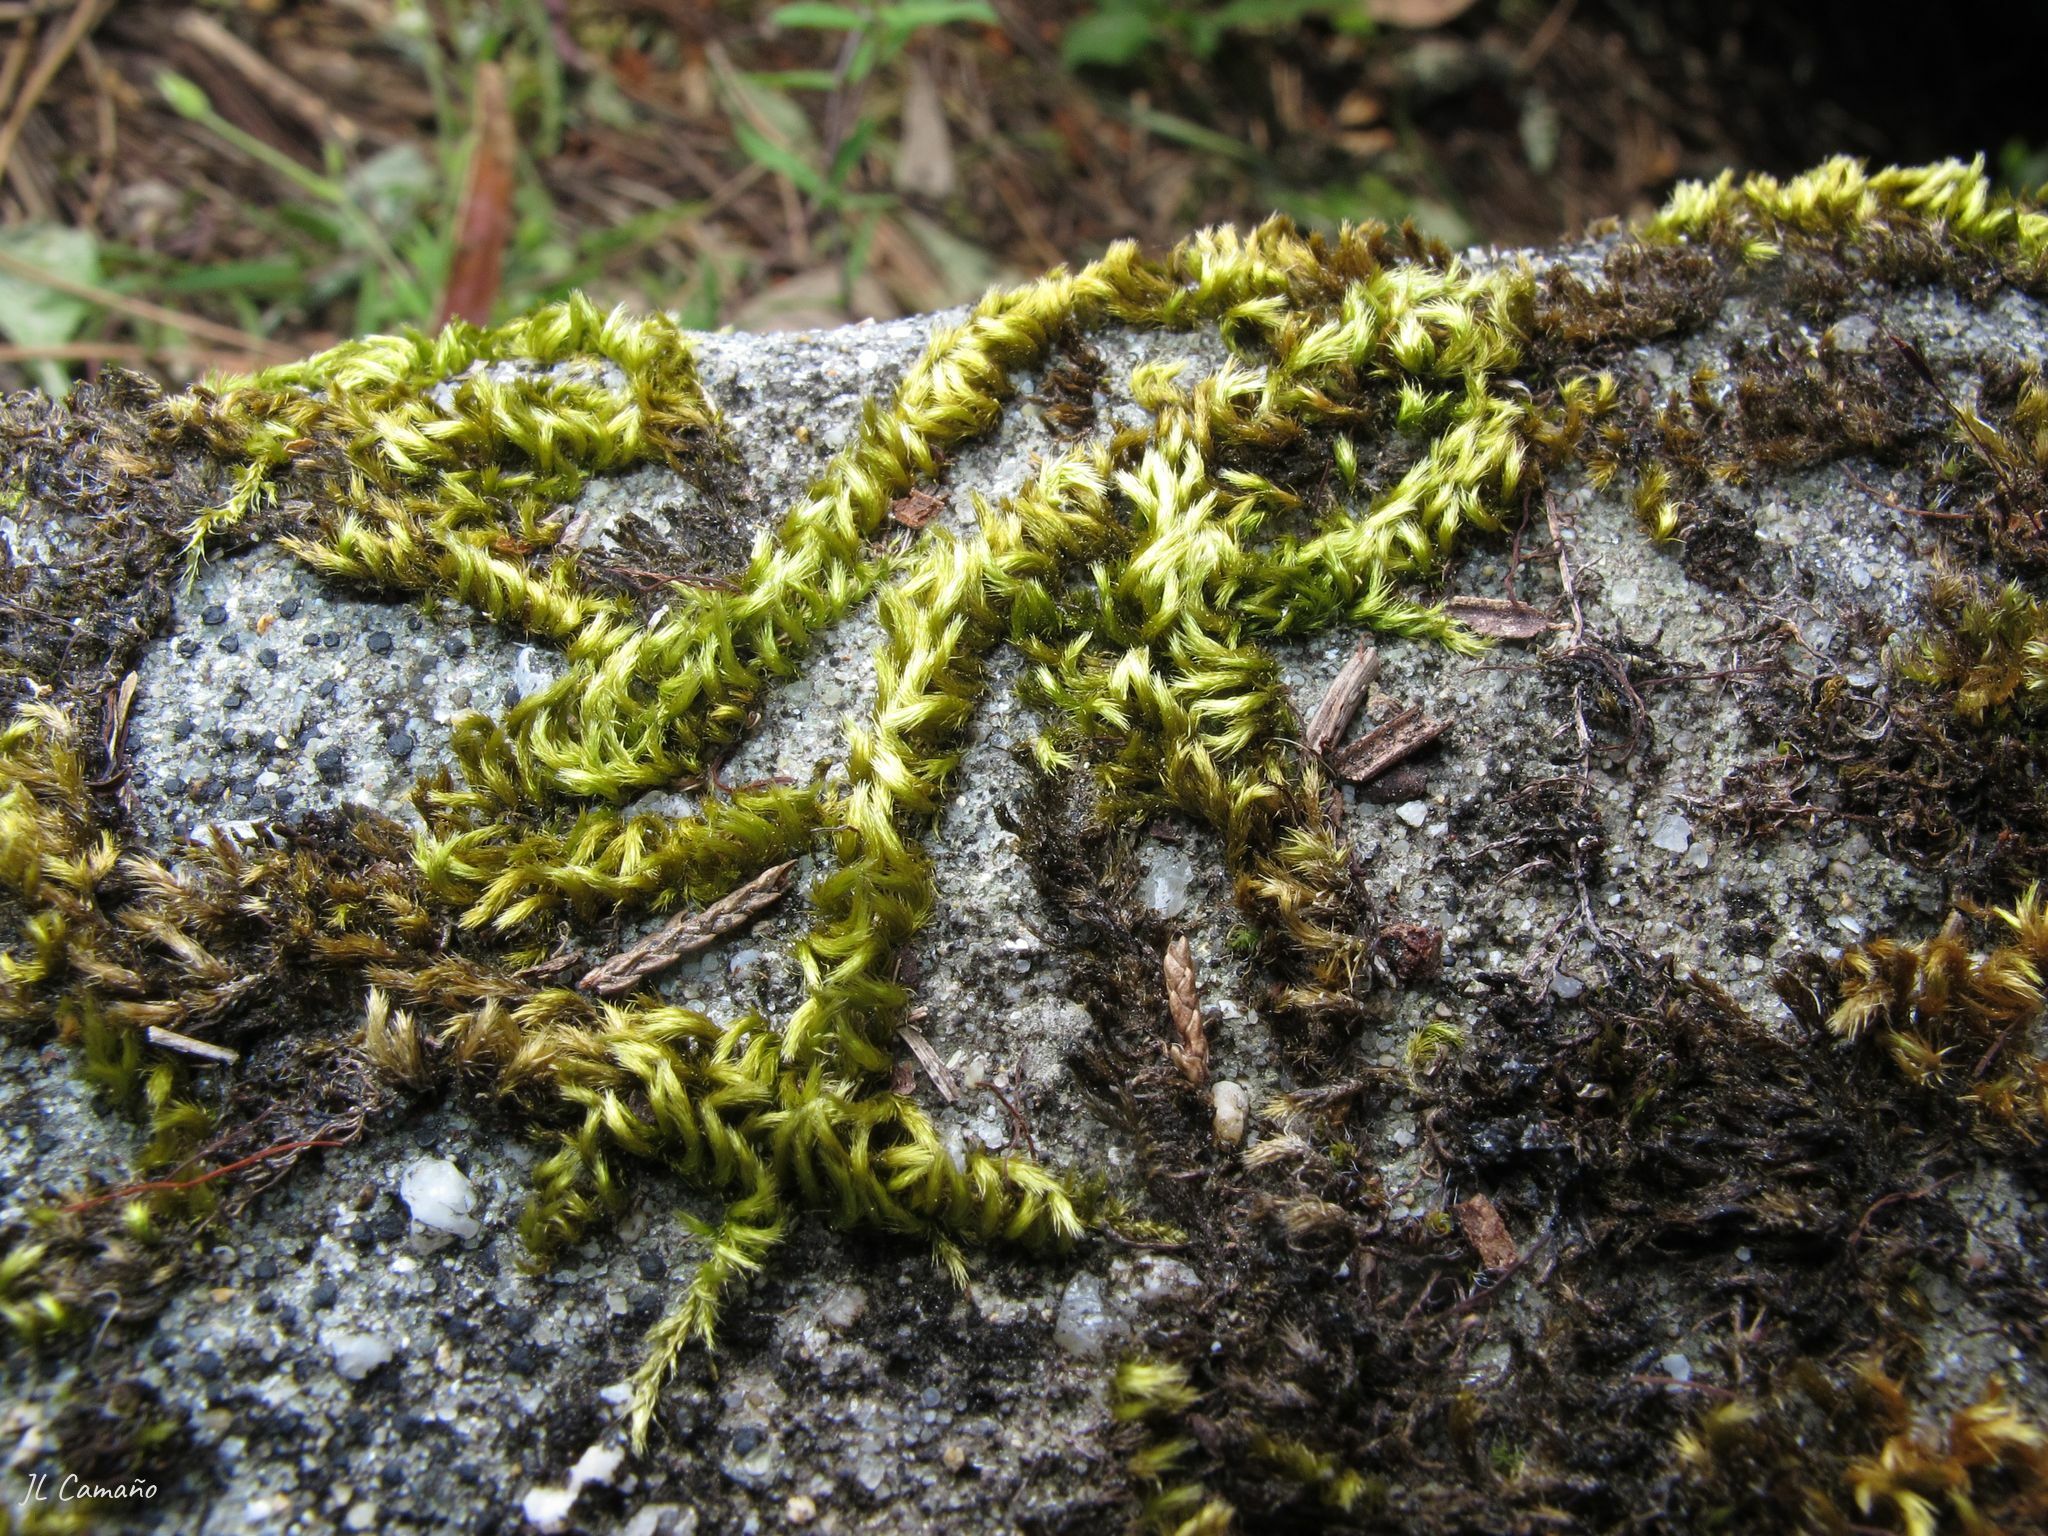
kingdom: Plantae
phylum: Bryophyta
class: Bryopsida
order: Hypnales
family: Brachytheciaceae
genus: Homalothecium
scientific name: Homalothecium sericeum
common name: Silky wall feather-moss
